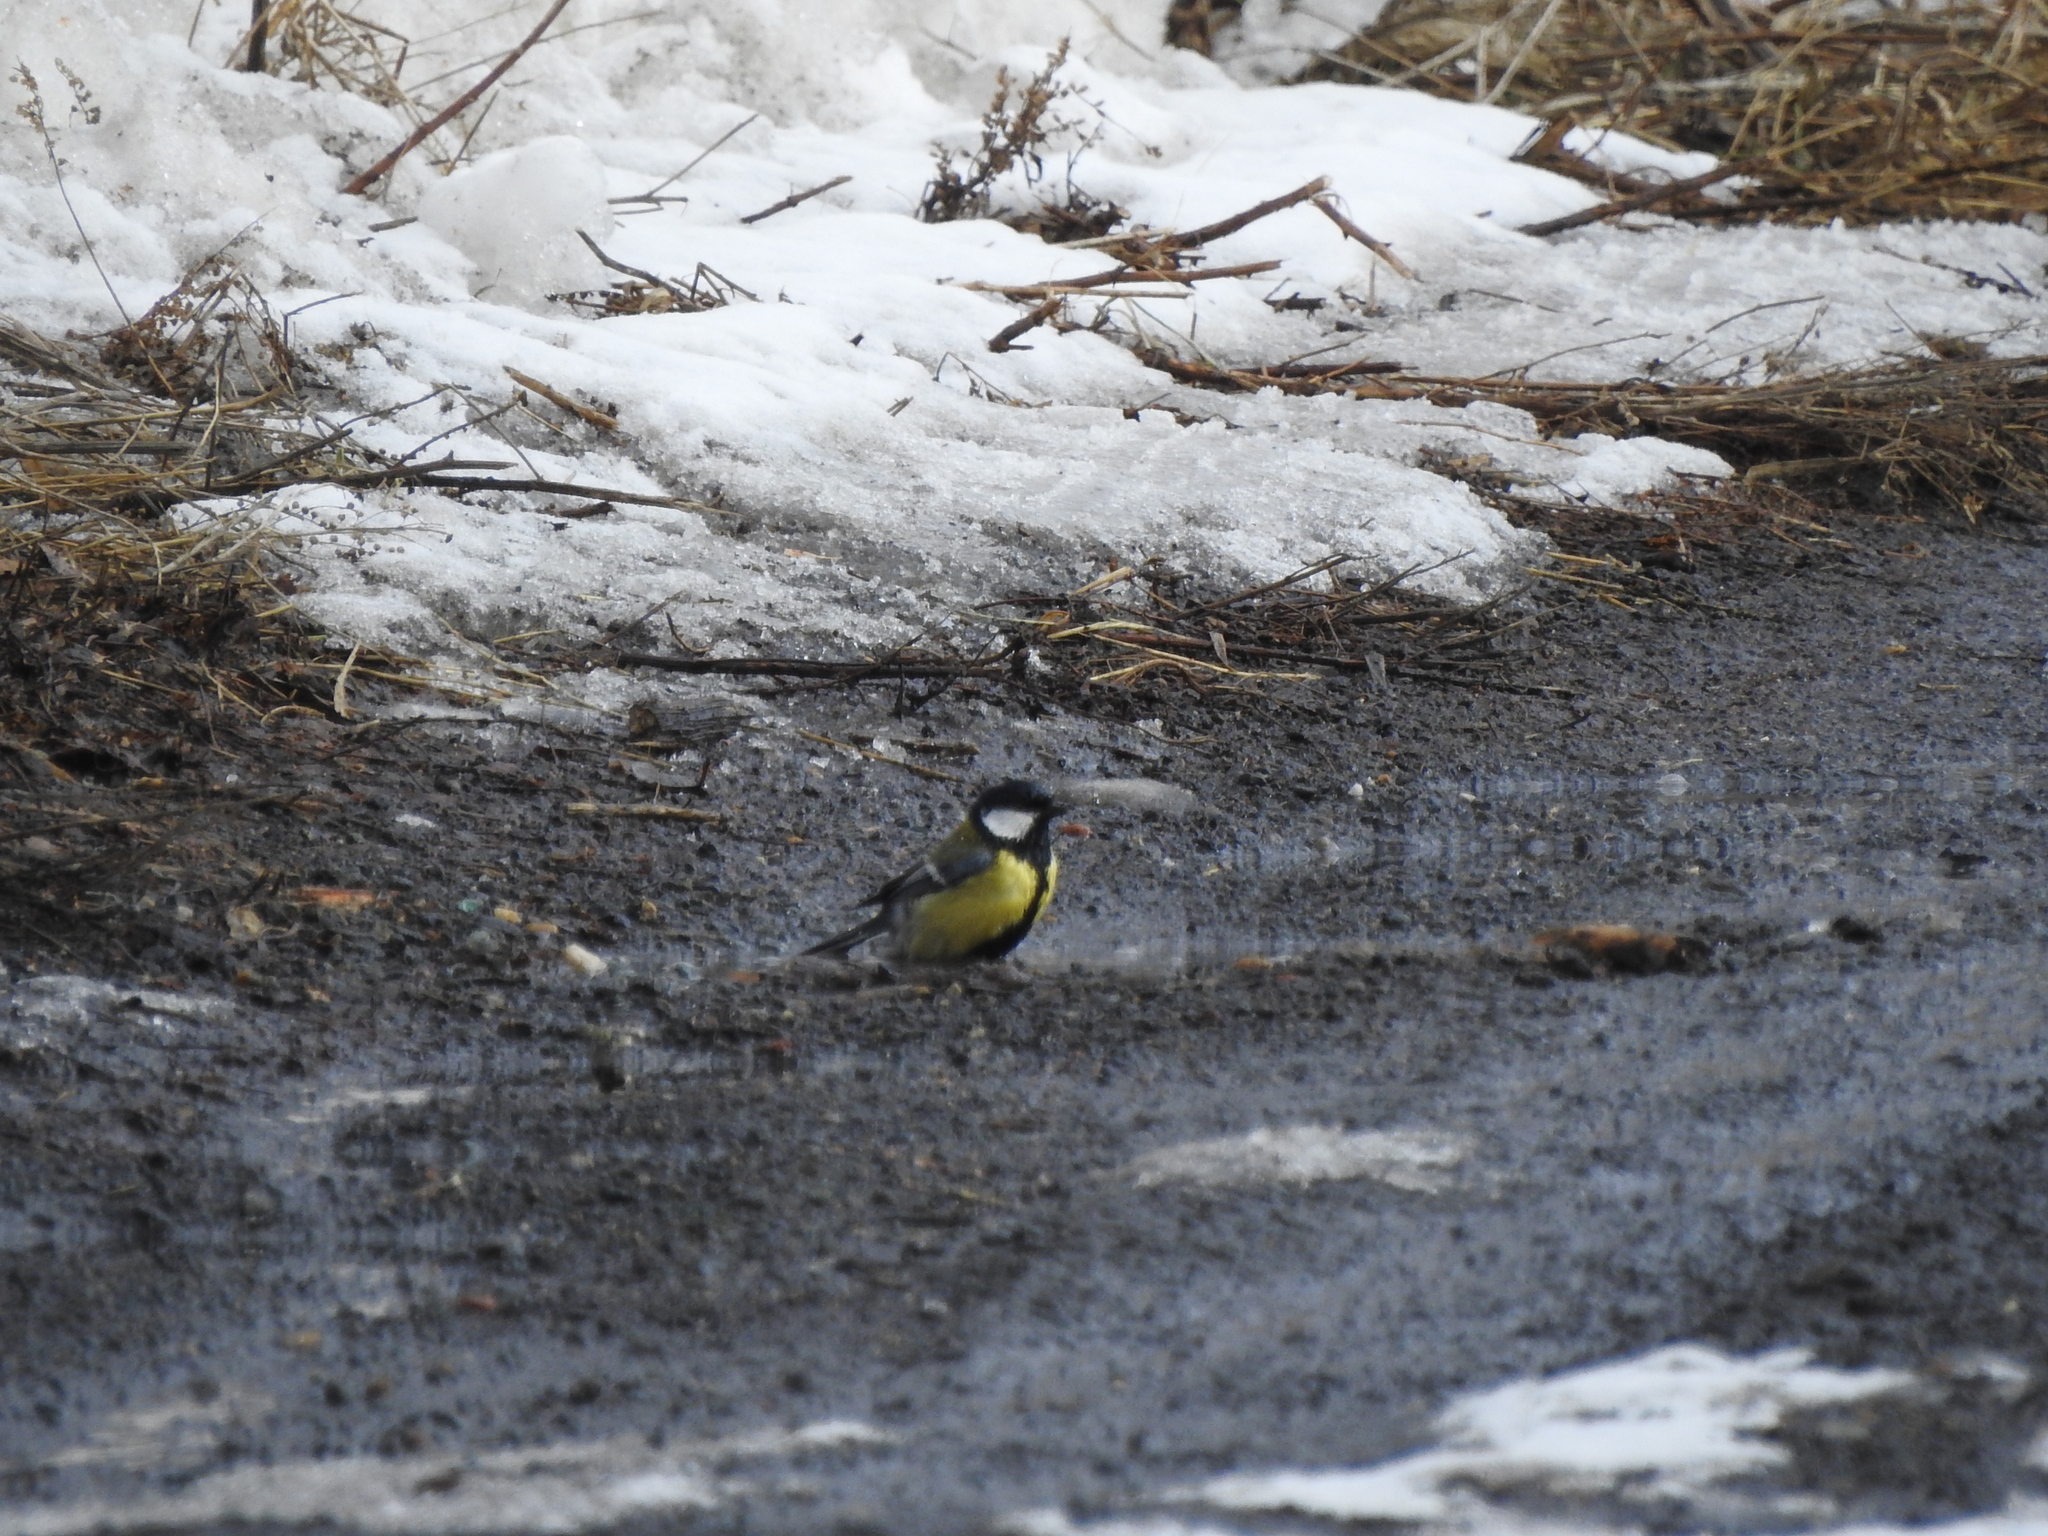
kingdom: Animalia
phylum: Chordata
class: Aves
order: Passeriformes
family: Paridae
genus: Parus
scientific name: Parus major
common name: Great tit
